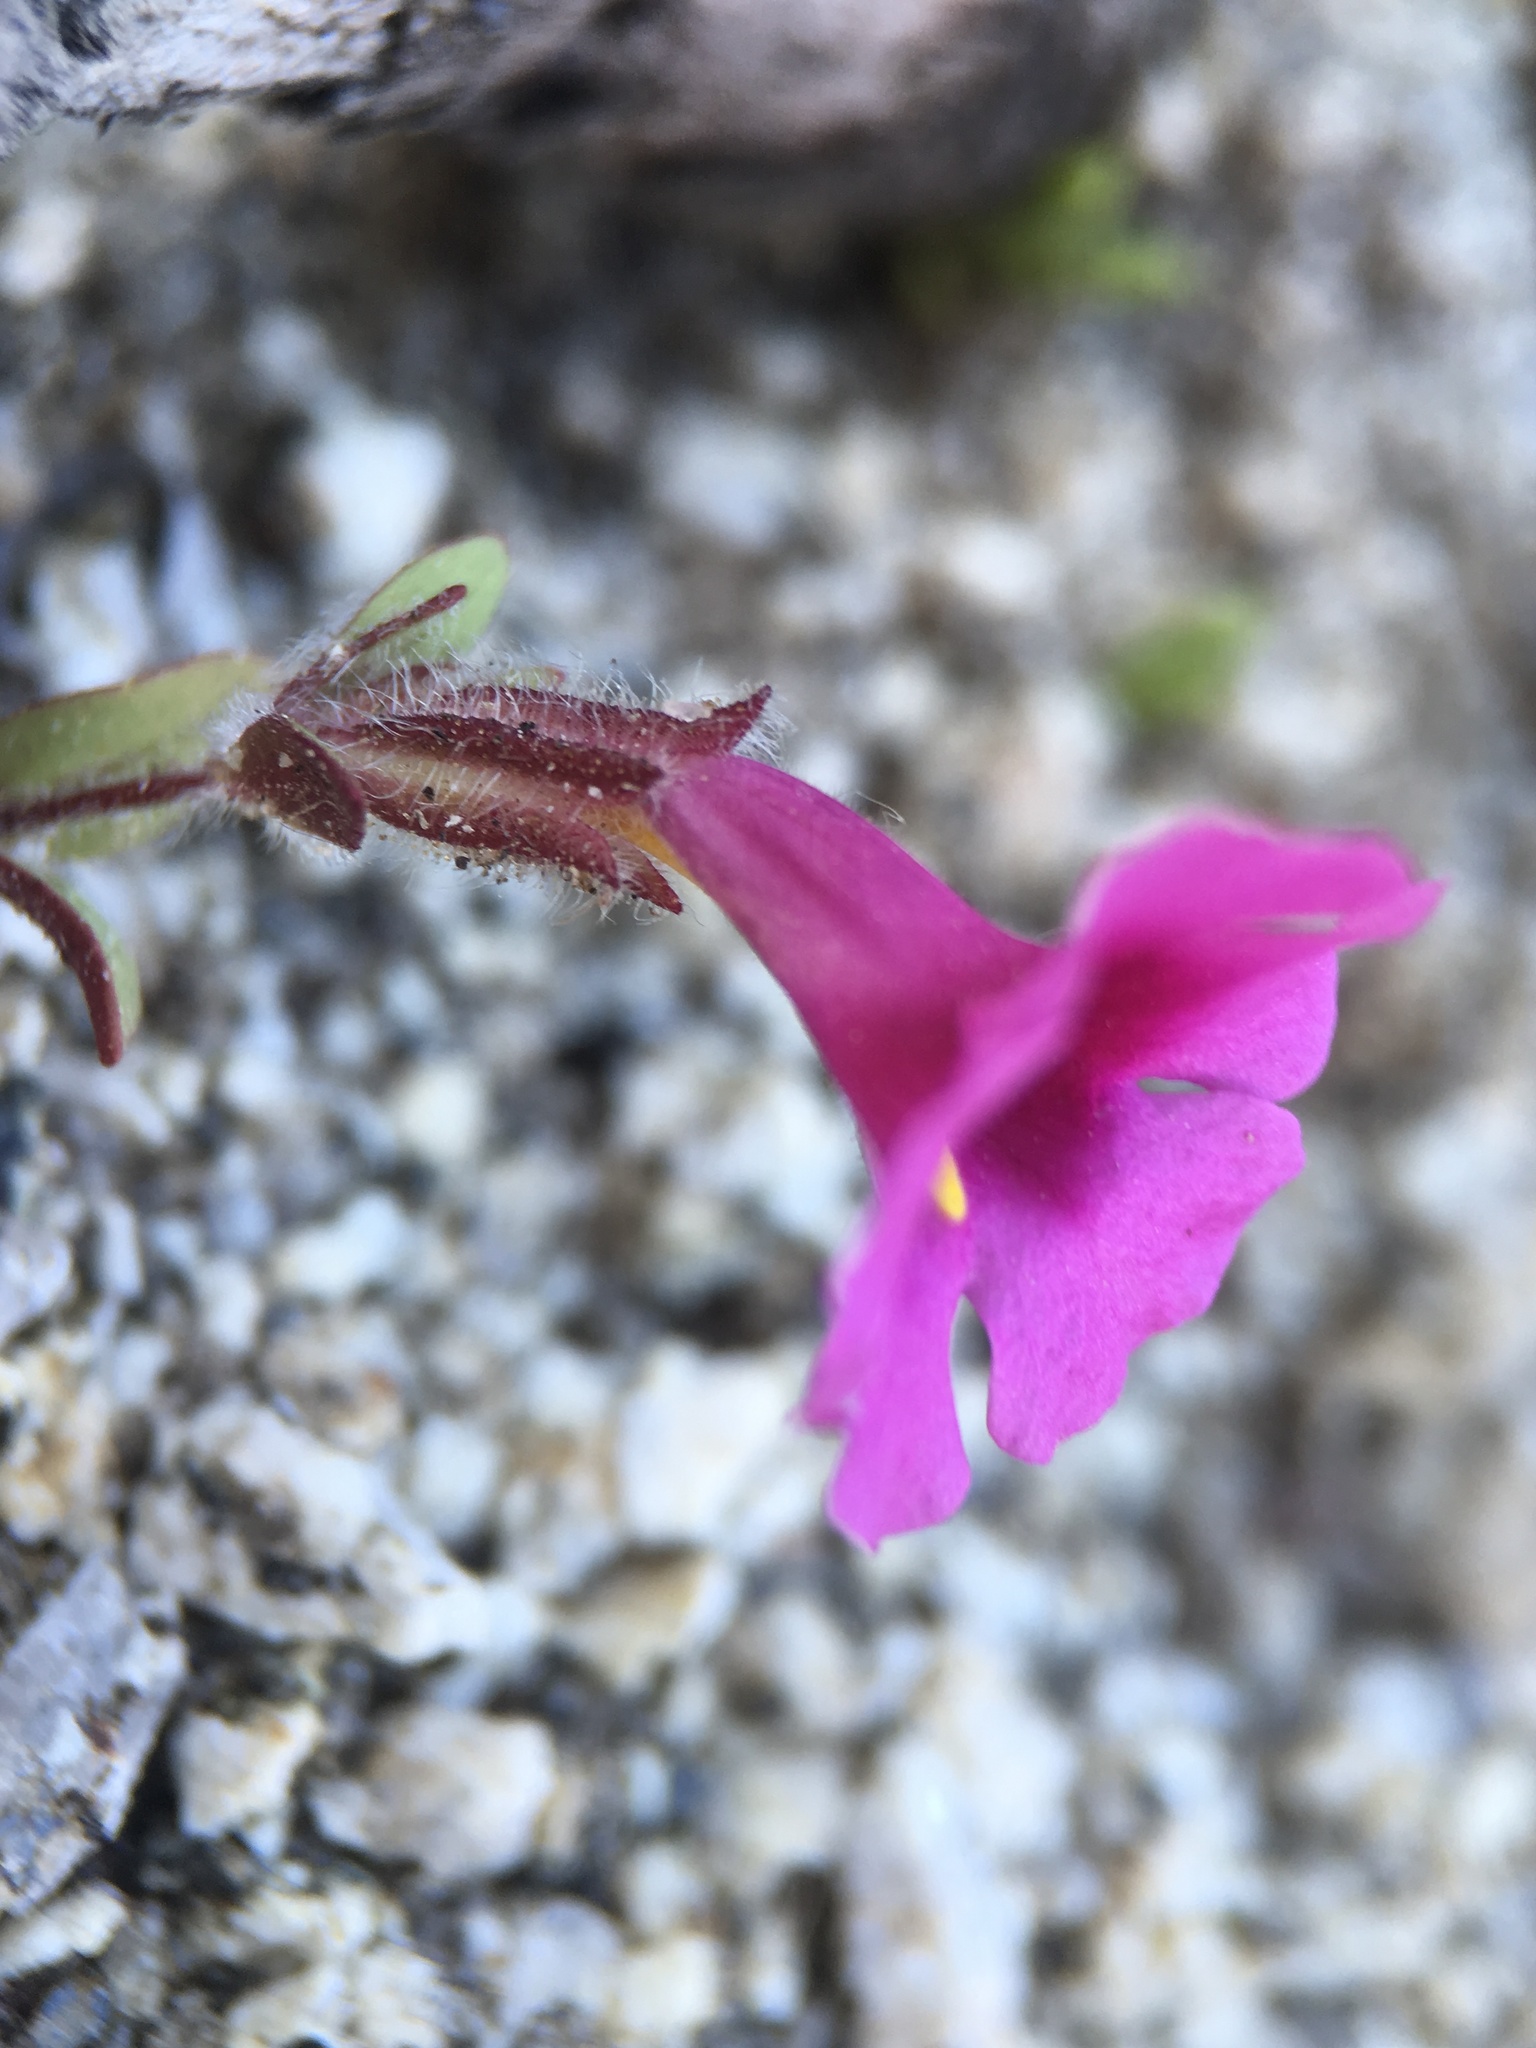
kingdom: Plantae
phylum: Tracheophyta
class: Magnoliopsida
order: Lamiales
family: Phrymaceae
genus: Diplacus
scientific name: Diplacus fremontii
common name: Fremont's monkey-flower
